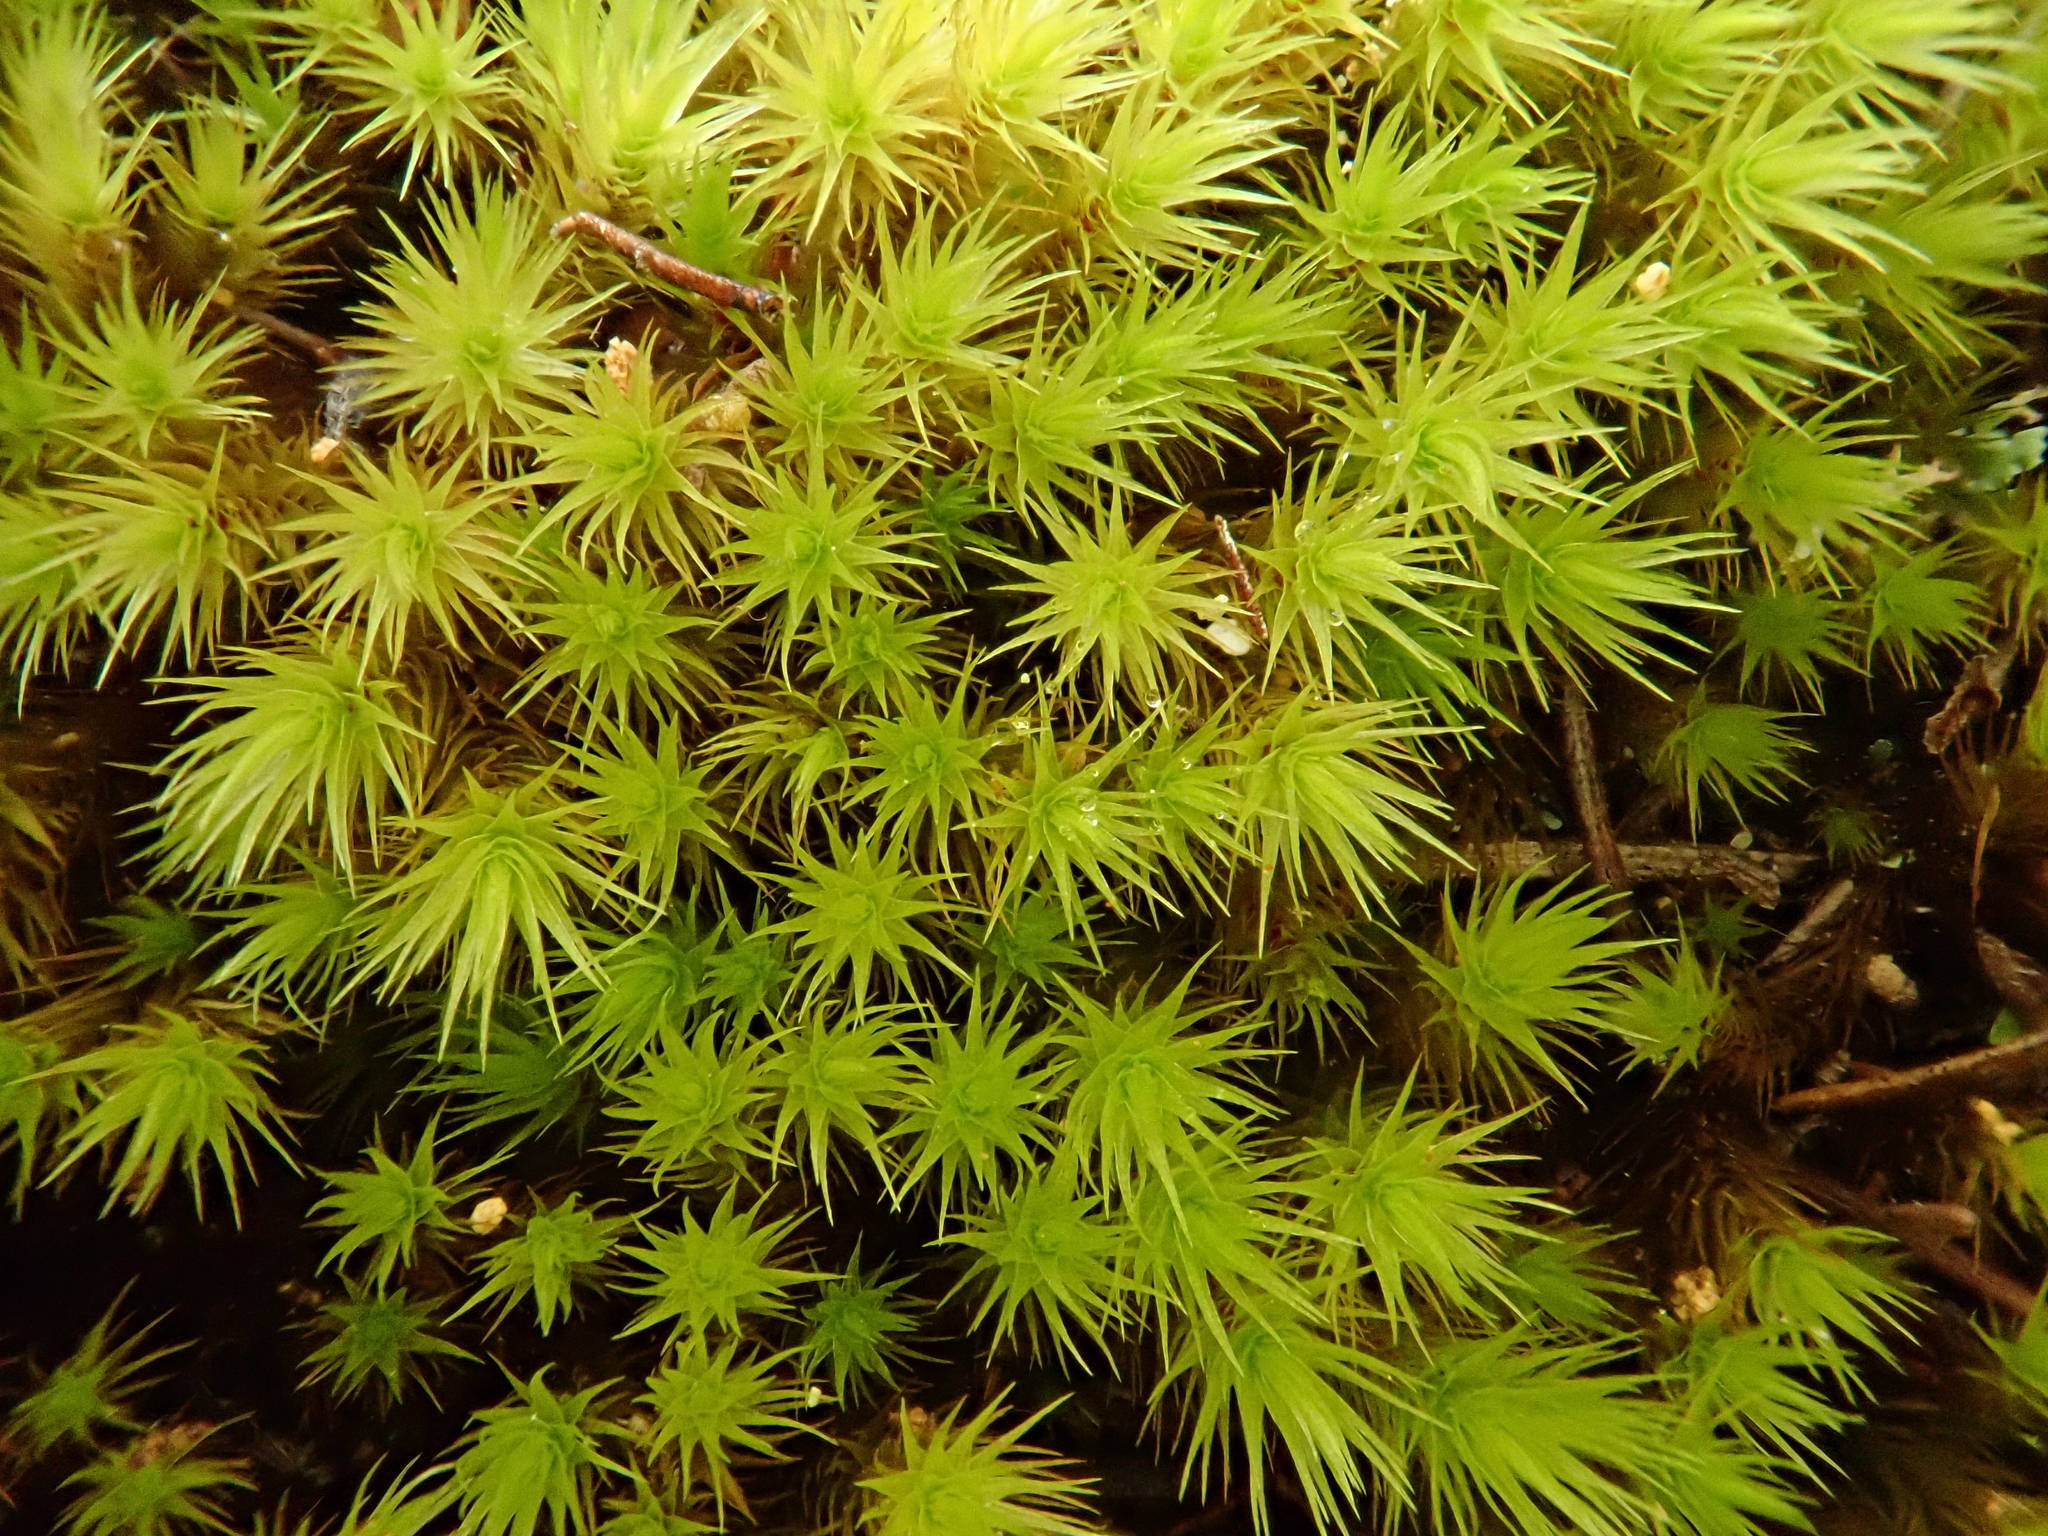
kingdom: Plantae
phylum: Bryophyta
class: Bryopsida
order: Bartramiales
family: Bartramiaceae
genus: Anacolia
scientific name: Anacolia webbii
